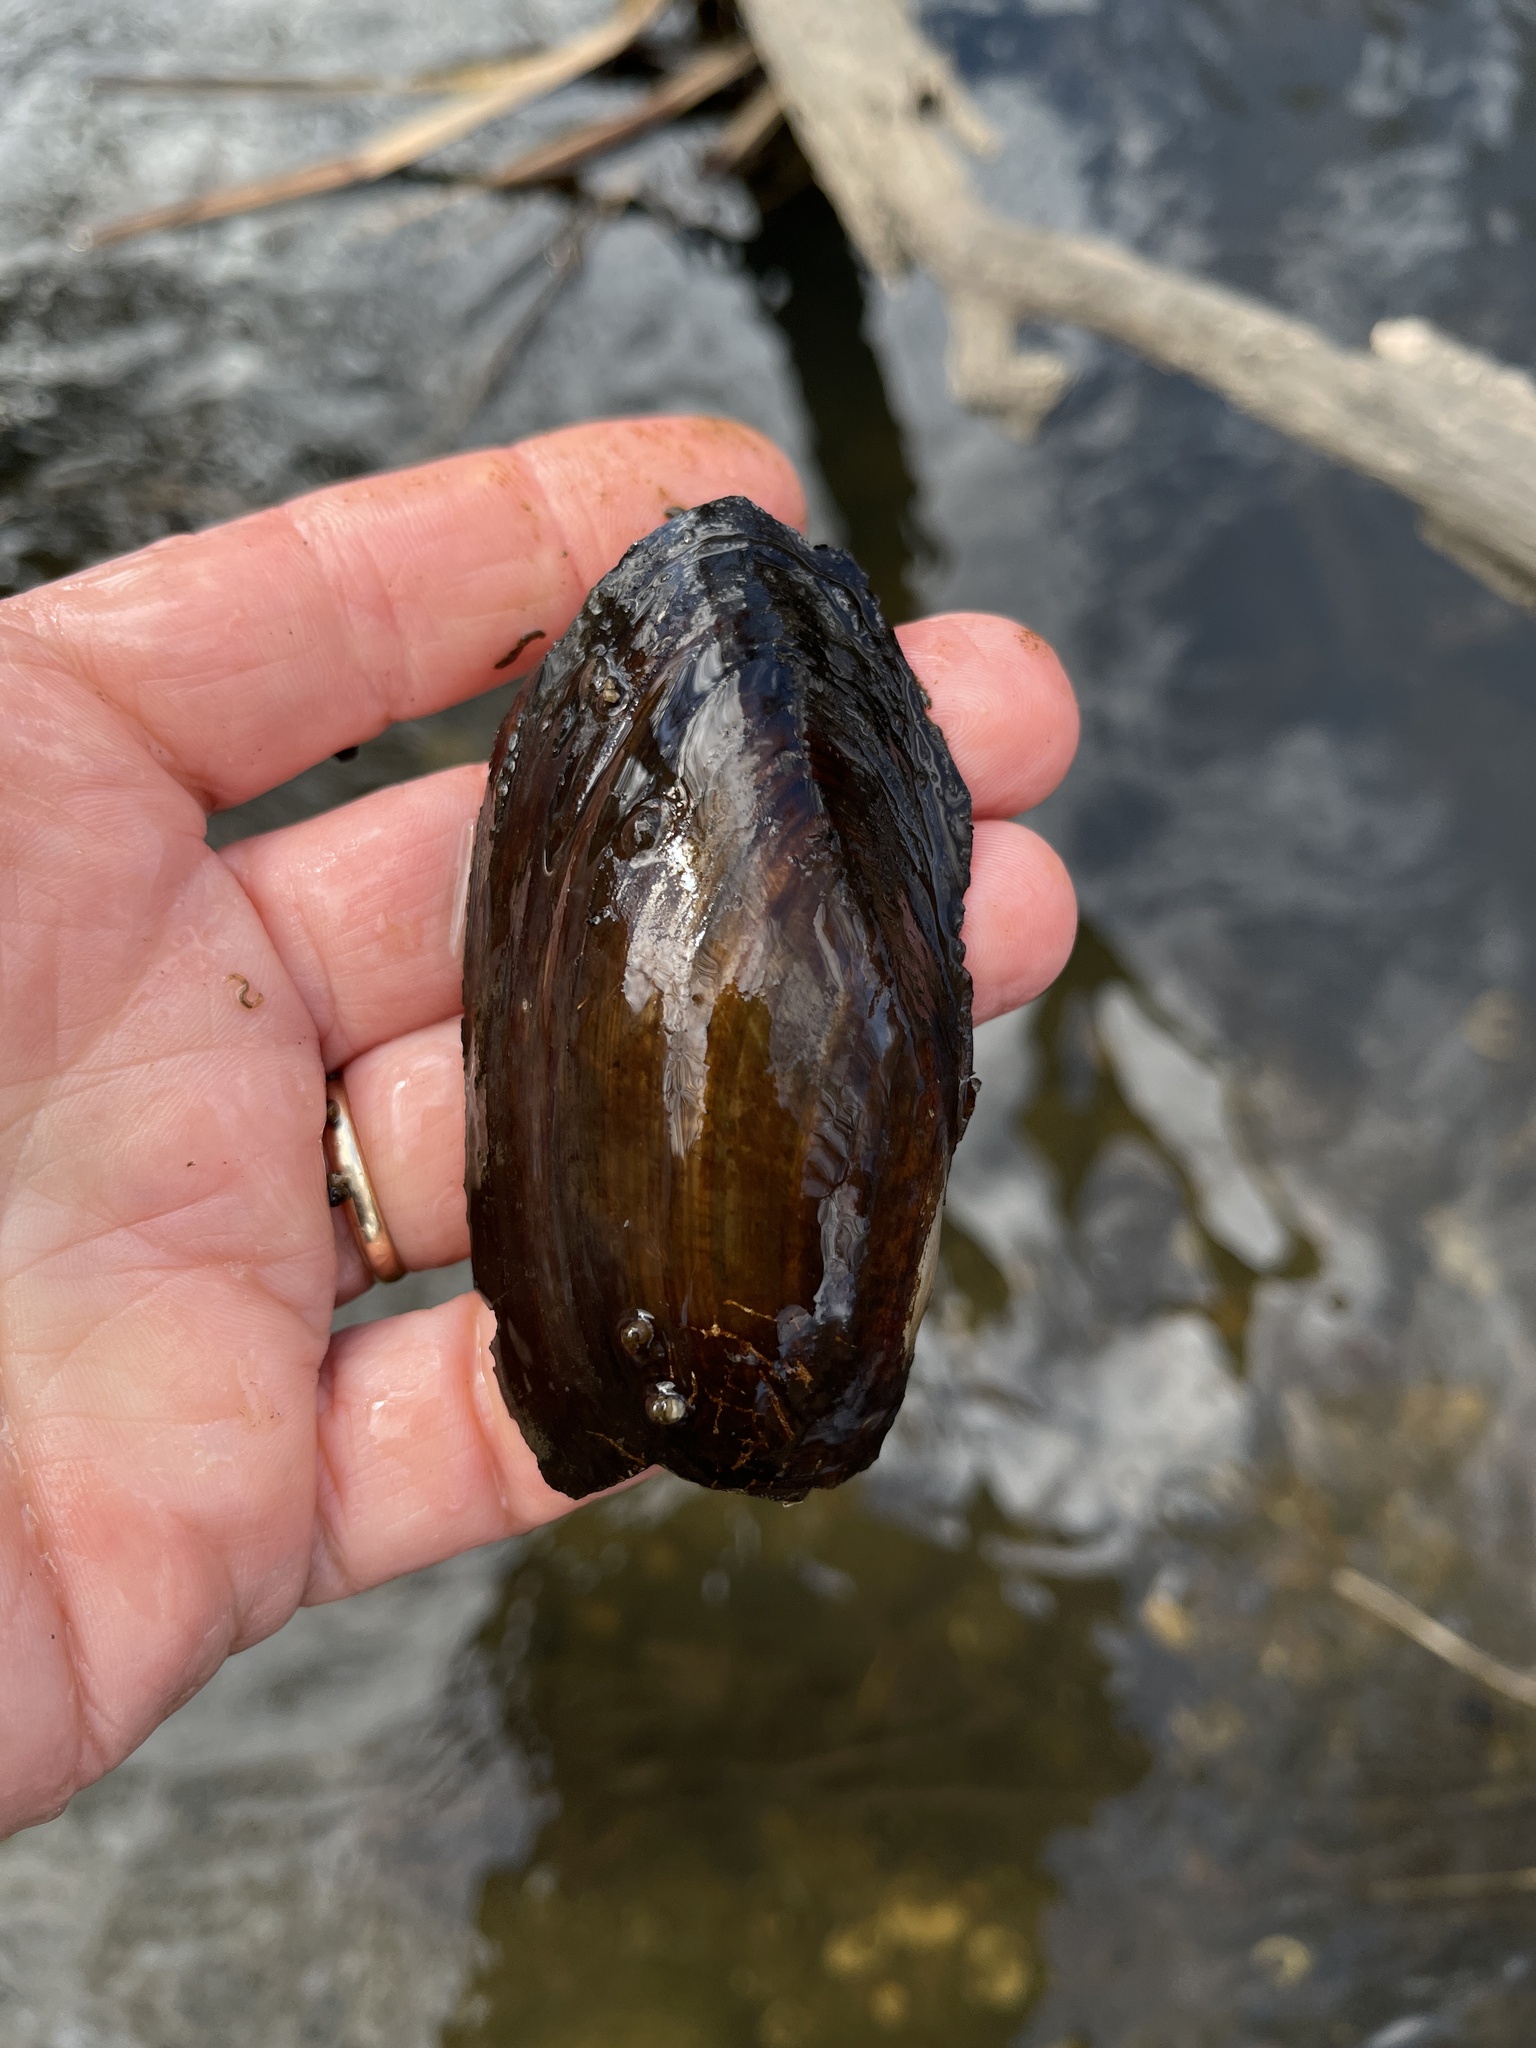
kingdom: Animalia
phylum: Mollusca
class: Bivalvia
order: Unionida
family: Unionidae
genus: Utterbackia
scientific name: Utterbackia imbecillis
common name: Paper pondshell
